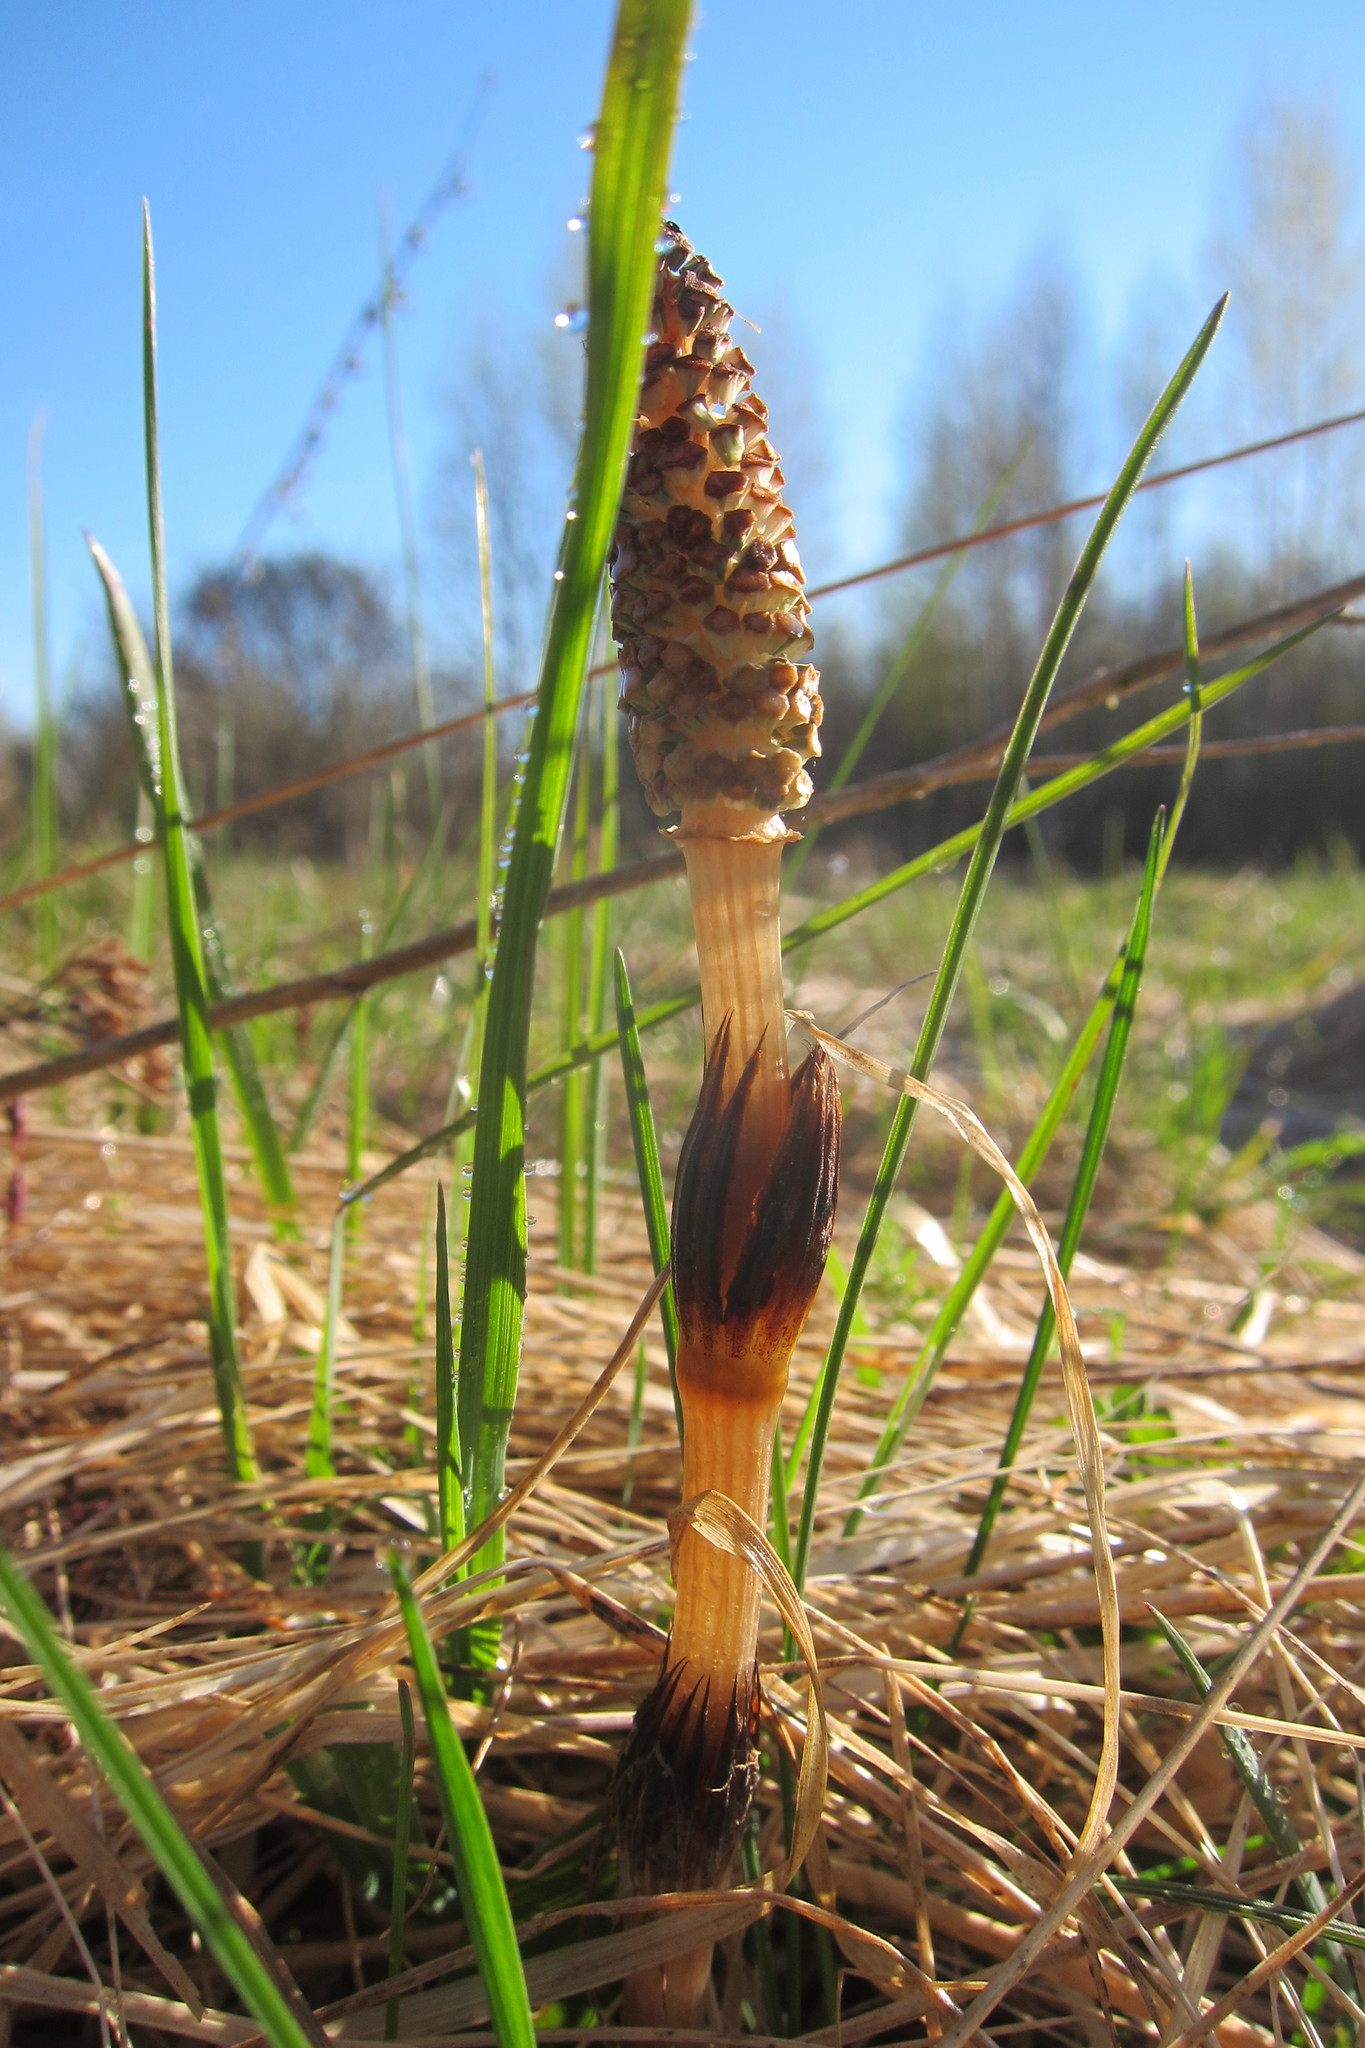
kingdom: Plantae
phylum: Tracheophyta
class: Polypodiopsida
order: Equisetales
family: Equisetaceae
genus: Equisetum
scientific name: Equisetum arvense
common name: Field horsetail
